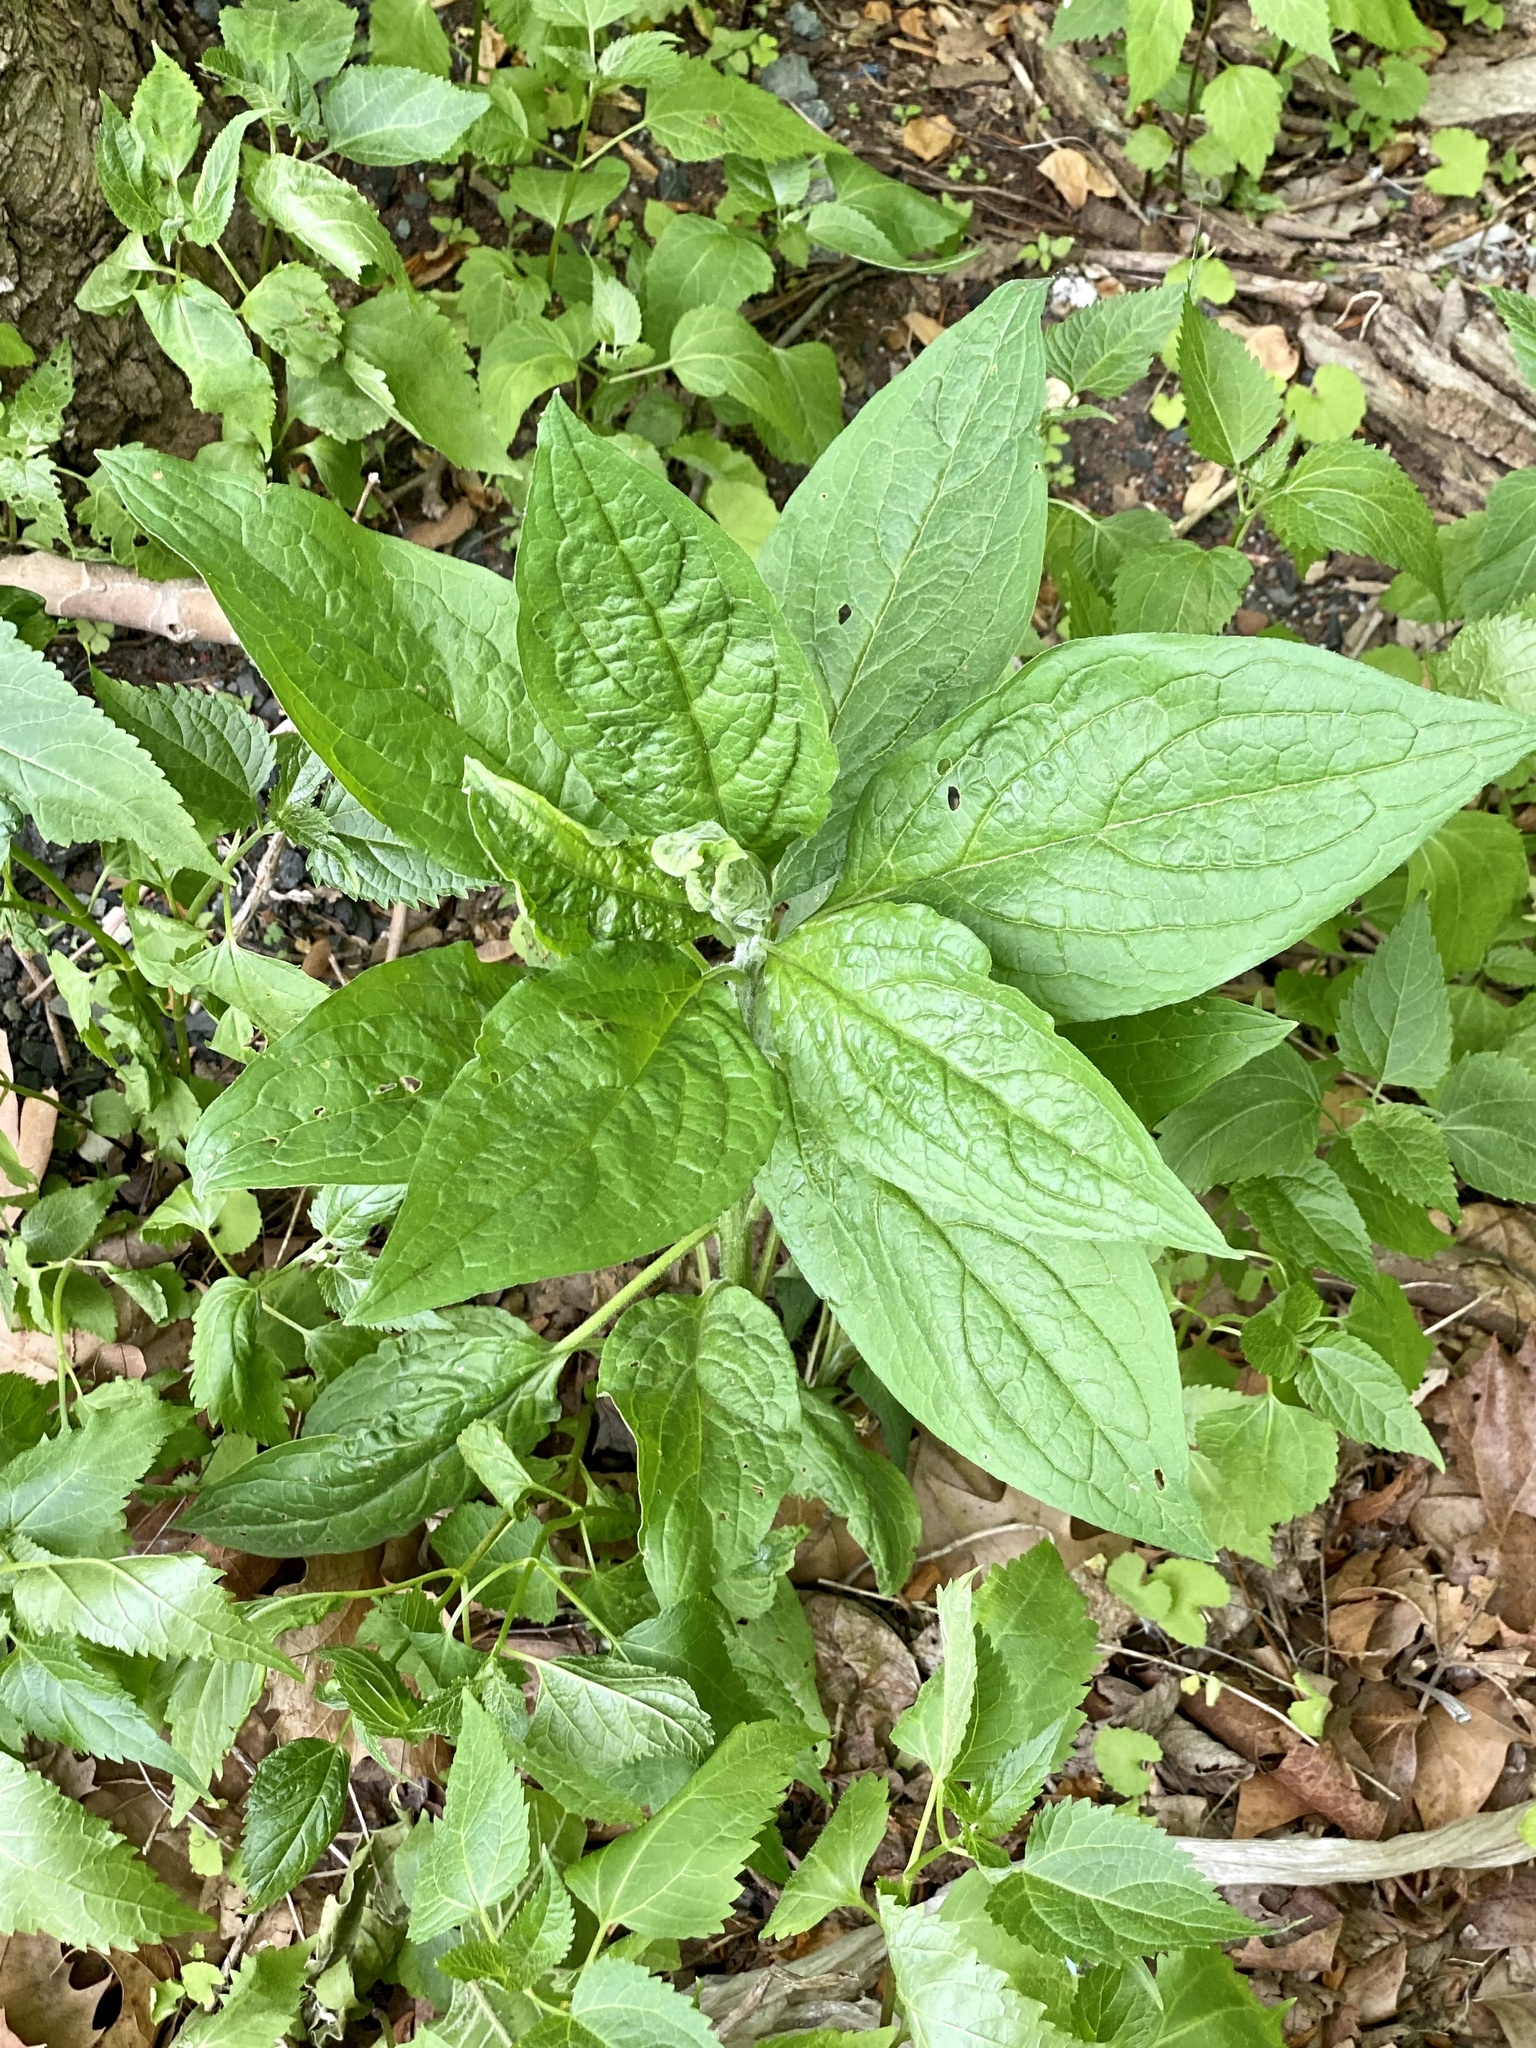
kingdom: Plantae
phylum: Tracheophyta
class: Magnoliopsida
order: Boraginales
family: Boraginaceae
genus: Hackelia
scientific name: Hackelia virginiana
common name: Beggar's-lice
